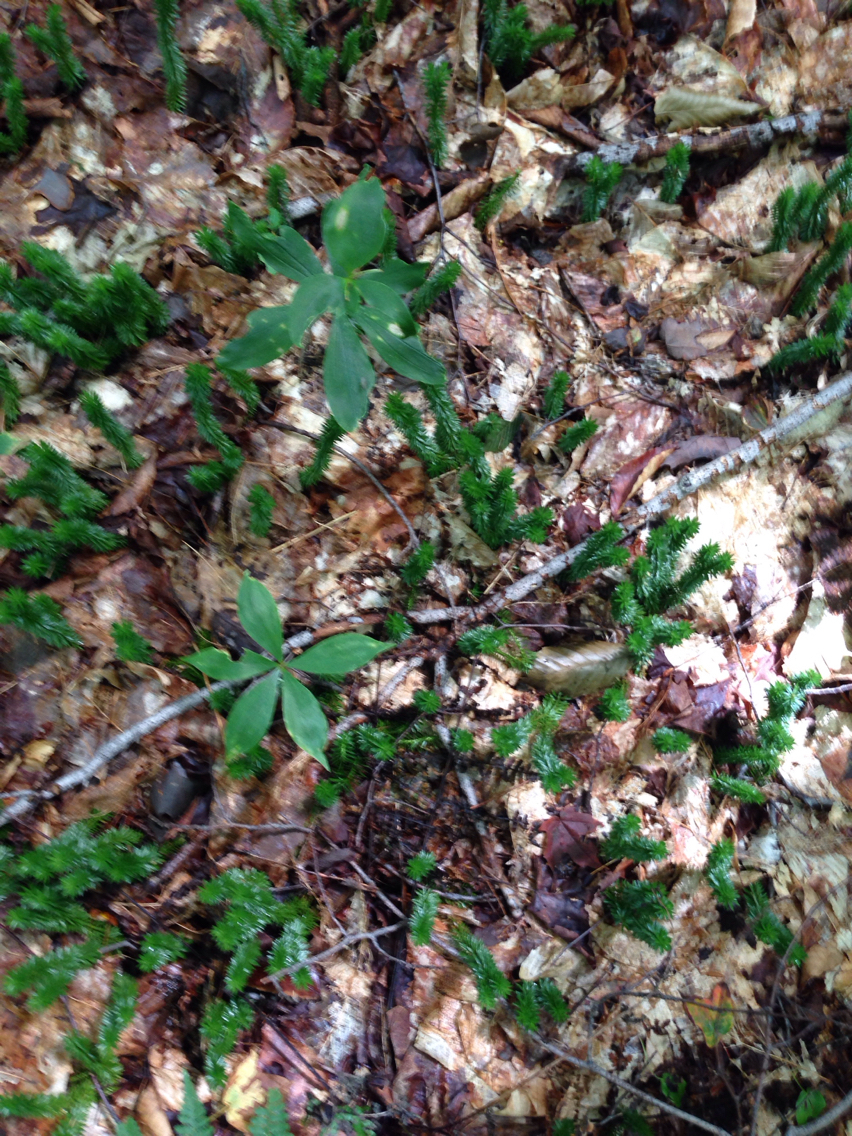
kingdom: Plantae
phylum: Tracheophyta
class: Liliopsida
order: Liliales
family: Liliaceae
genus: Medeola
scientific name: Medeola virginiana
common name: Indian cucumber-root
